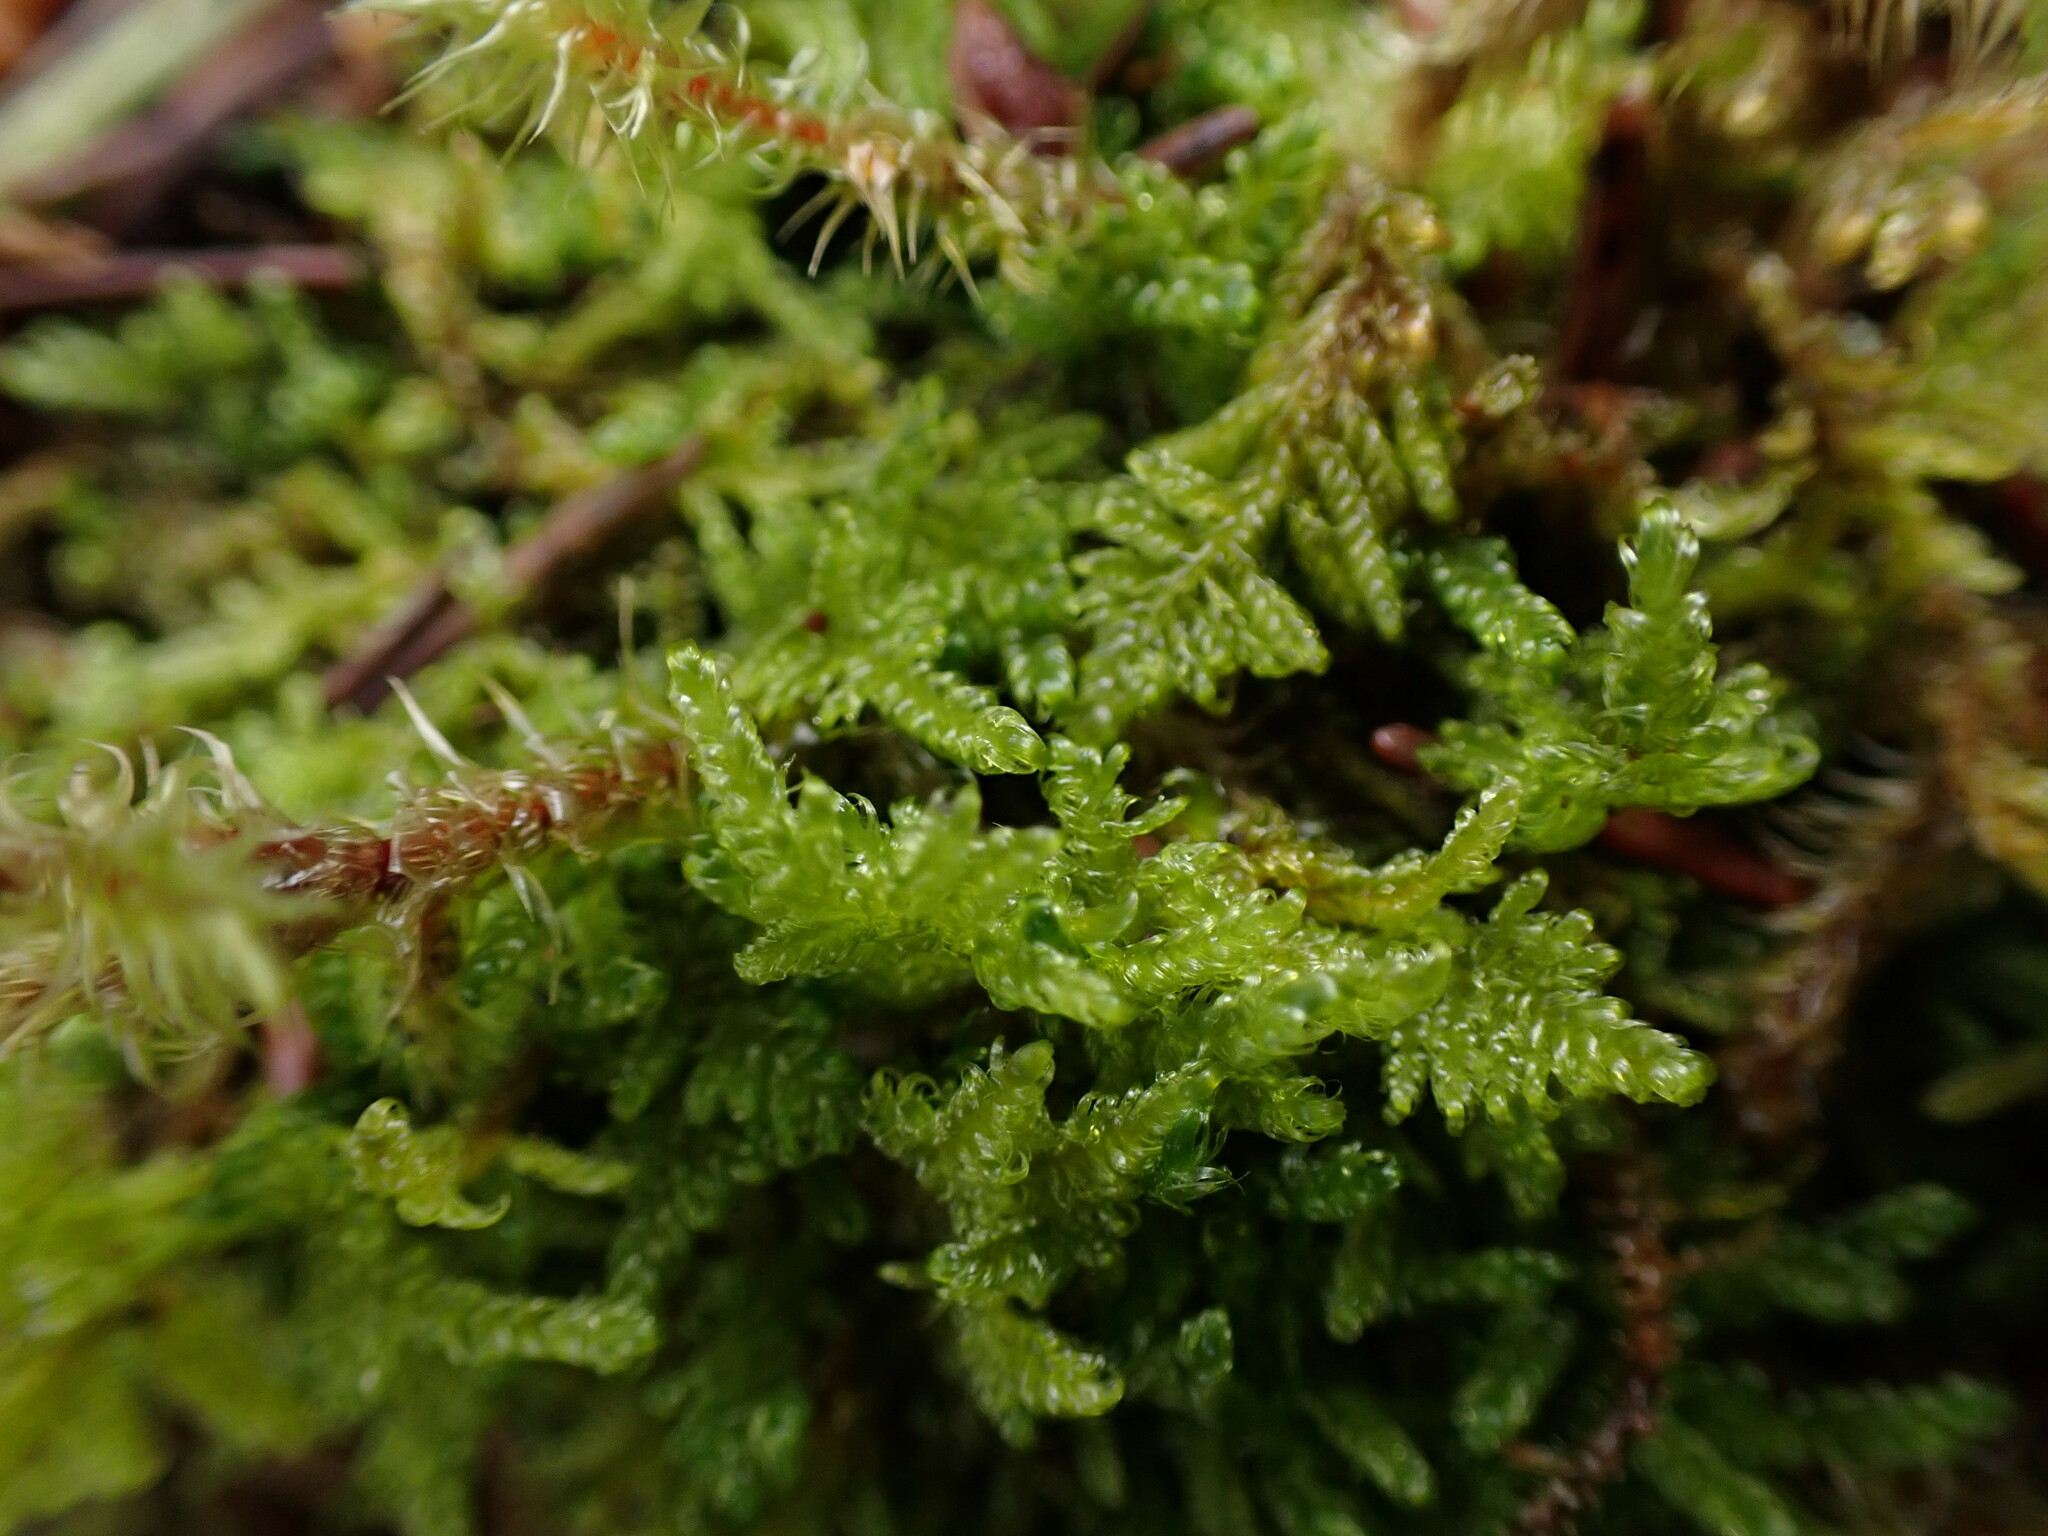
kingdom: Plantae
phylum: Bryophyta
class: Bryopsida
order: Hypnales
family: Stereodontaceae
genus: Stereodon
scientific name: Stereodon subimponens
